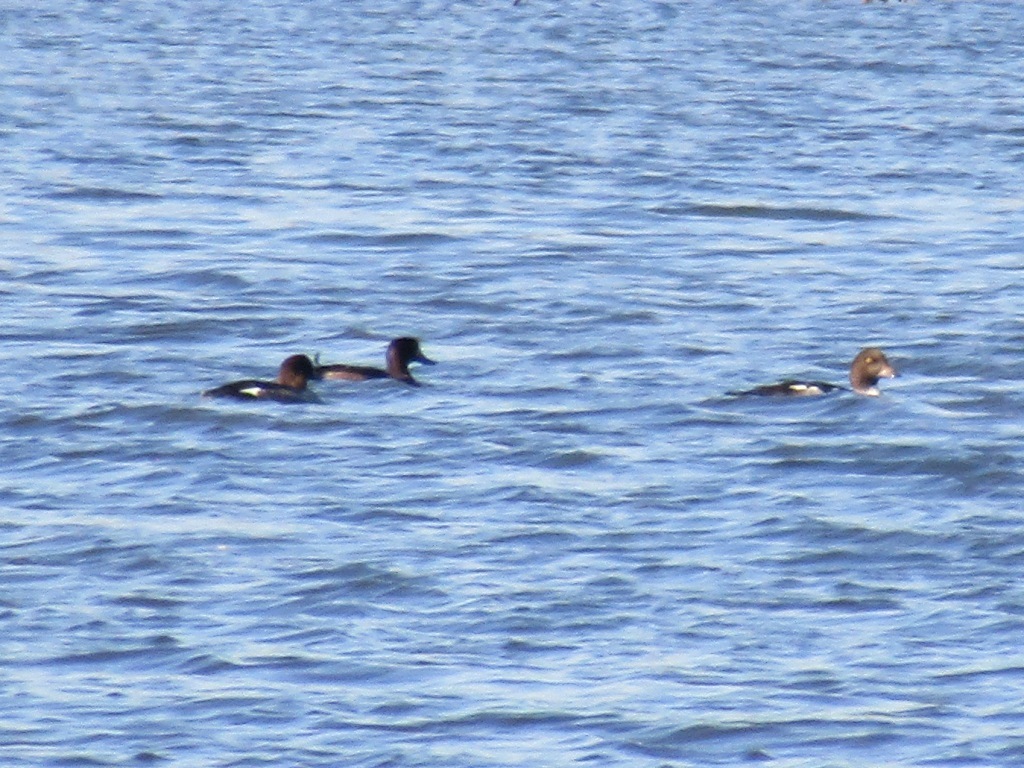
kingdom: Animalia
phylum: Chordata
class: Aves
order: Anseriformes
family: Anatidae
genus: Bucephala
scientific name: Bucephala clangula
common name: Common goldeneye
